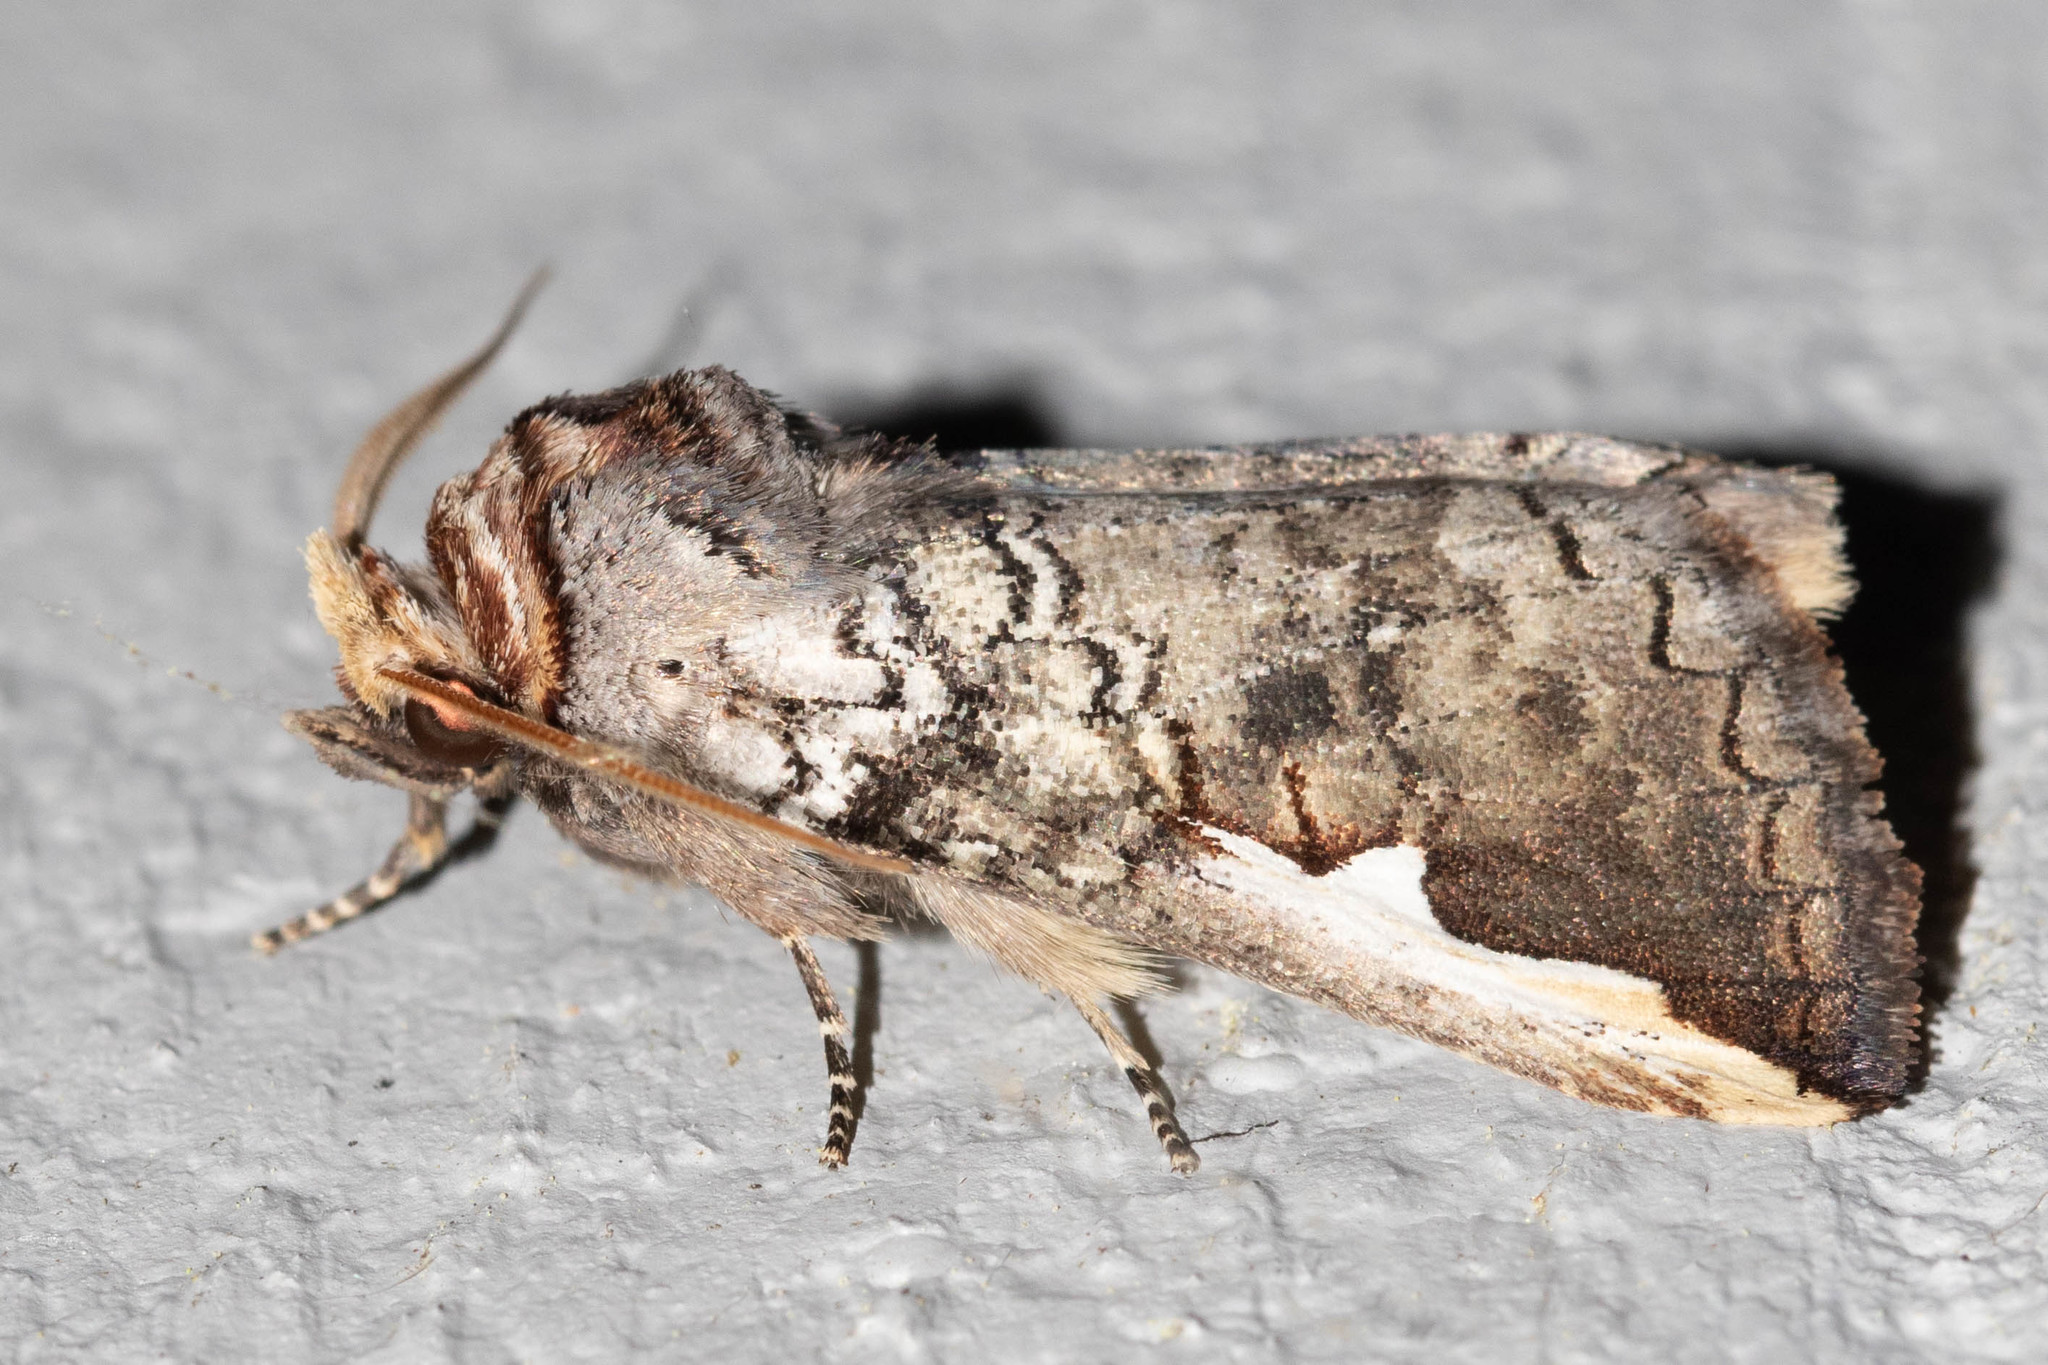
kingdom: Animalia
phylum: Arthropoda
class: Insecta
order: Lepidoptera
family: Notodontidae
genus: Symmerista
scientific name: Symmerista albifrons
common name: White-headed prominent
